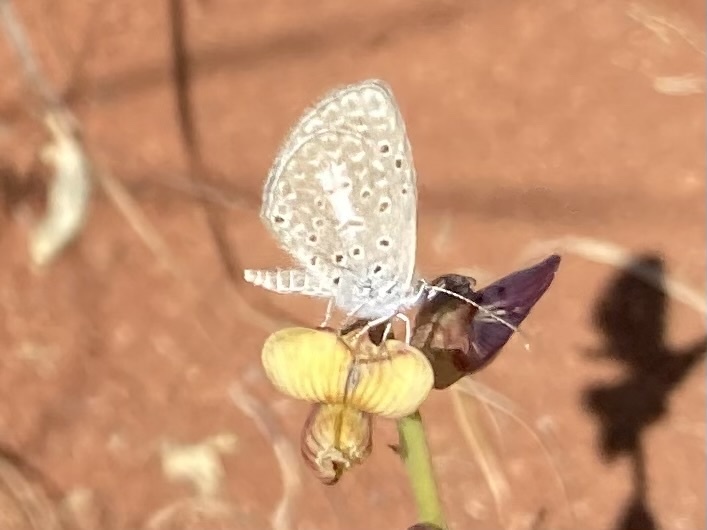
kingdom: Animalia
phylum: Arthropoda
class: Insecta
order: Lepidoptera
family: Lycaenidae
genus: Actizera
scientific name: Actizera lucida
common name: Rayed blue
